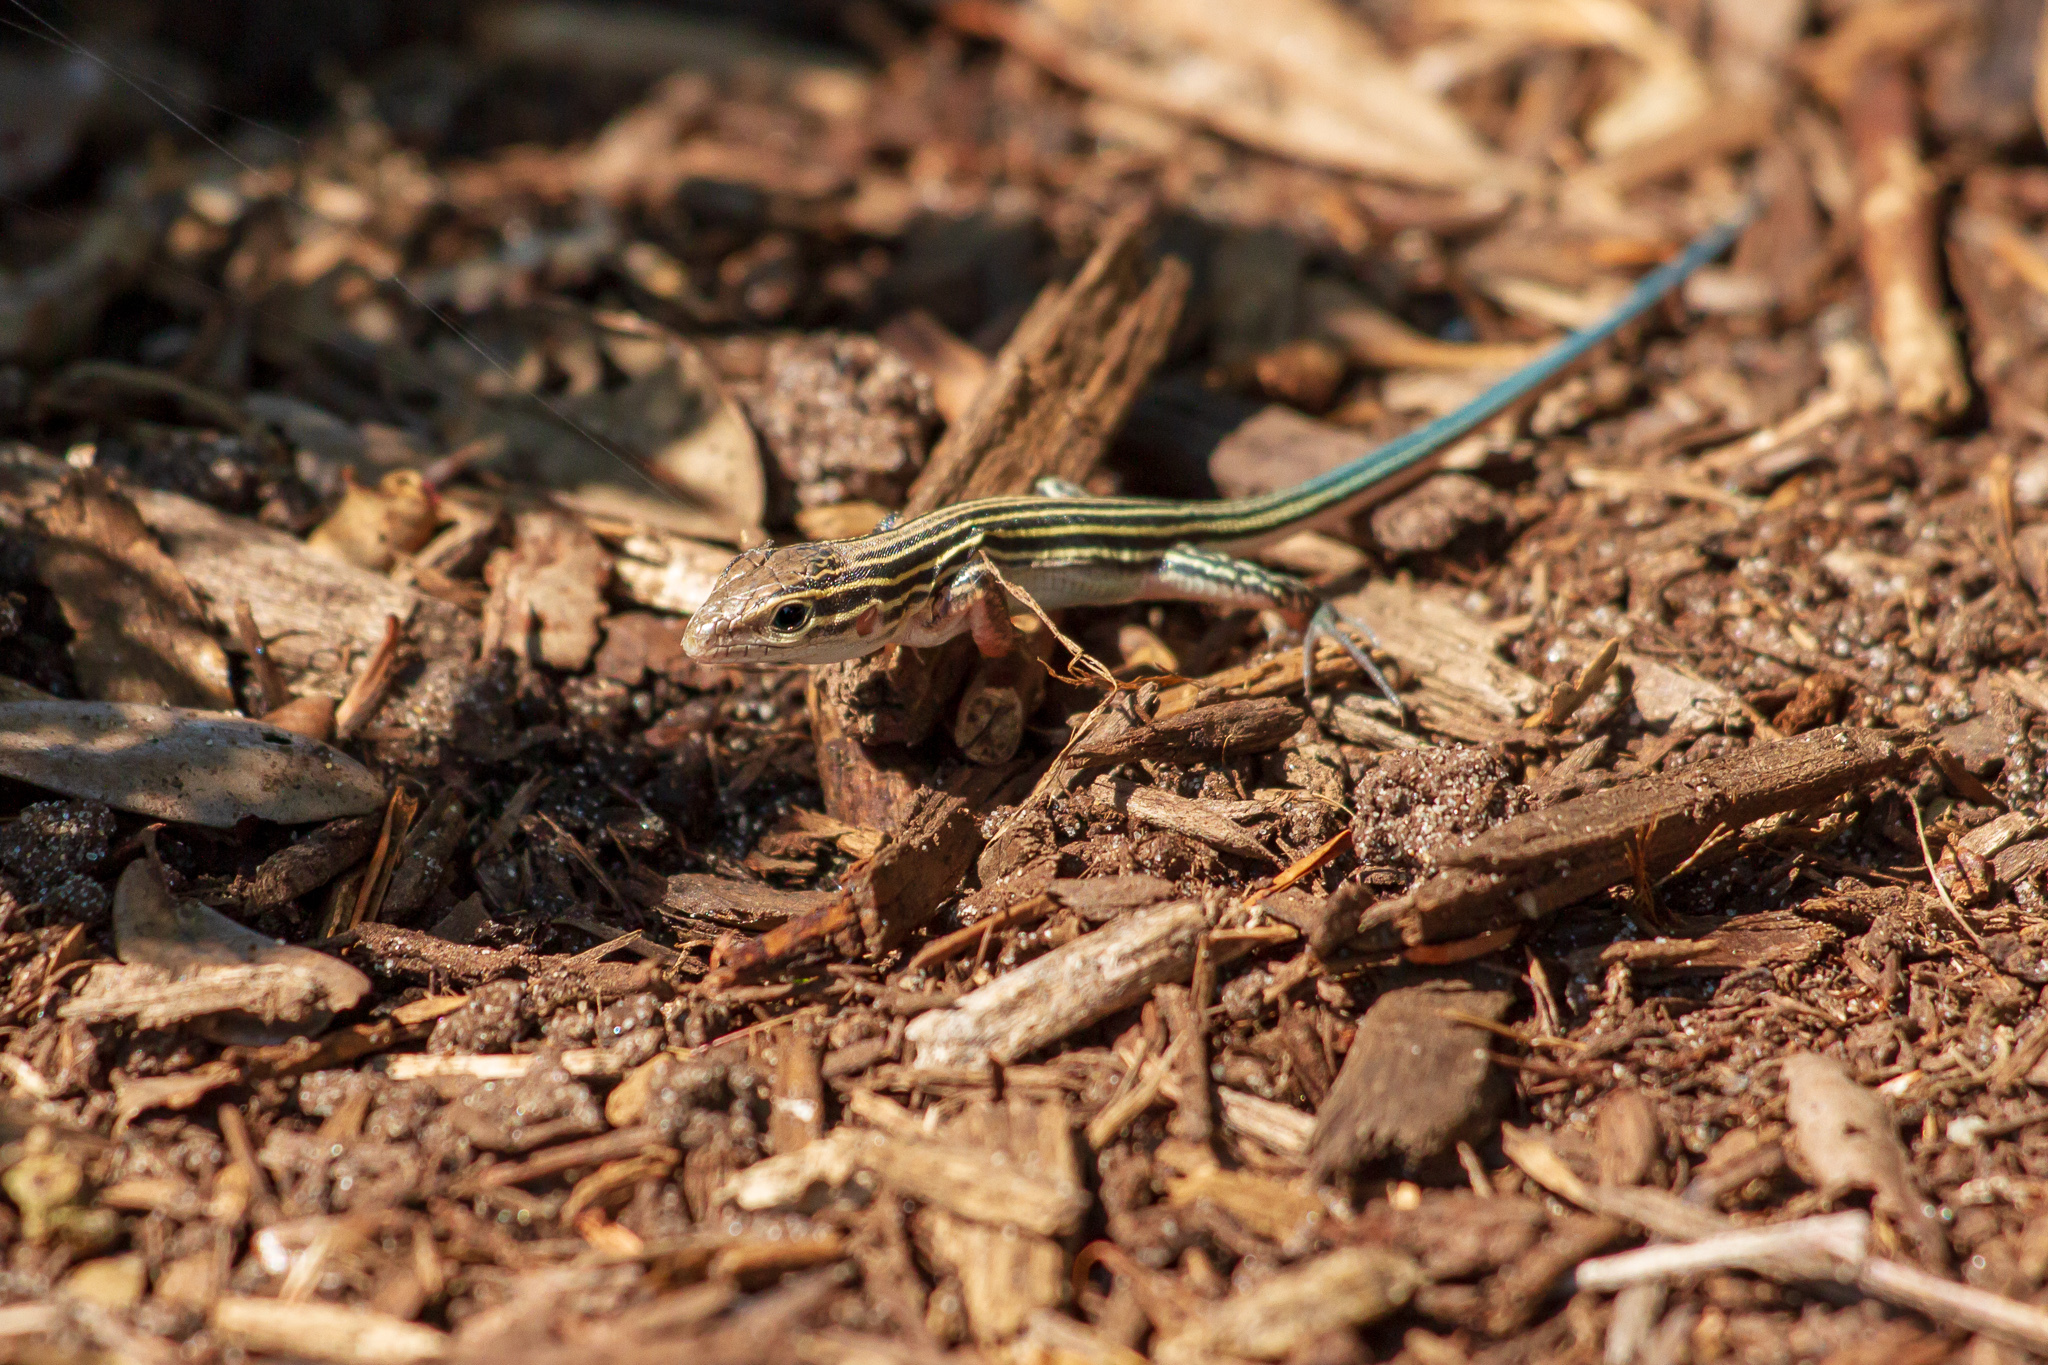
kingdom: Animalia
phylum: Chordata
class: Squamata
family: Teiidae
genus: Aspidoscelis
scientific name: Aspidoscelis sexlineatus
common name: Six-lined racerunner
